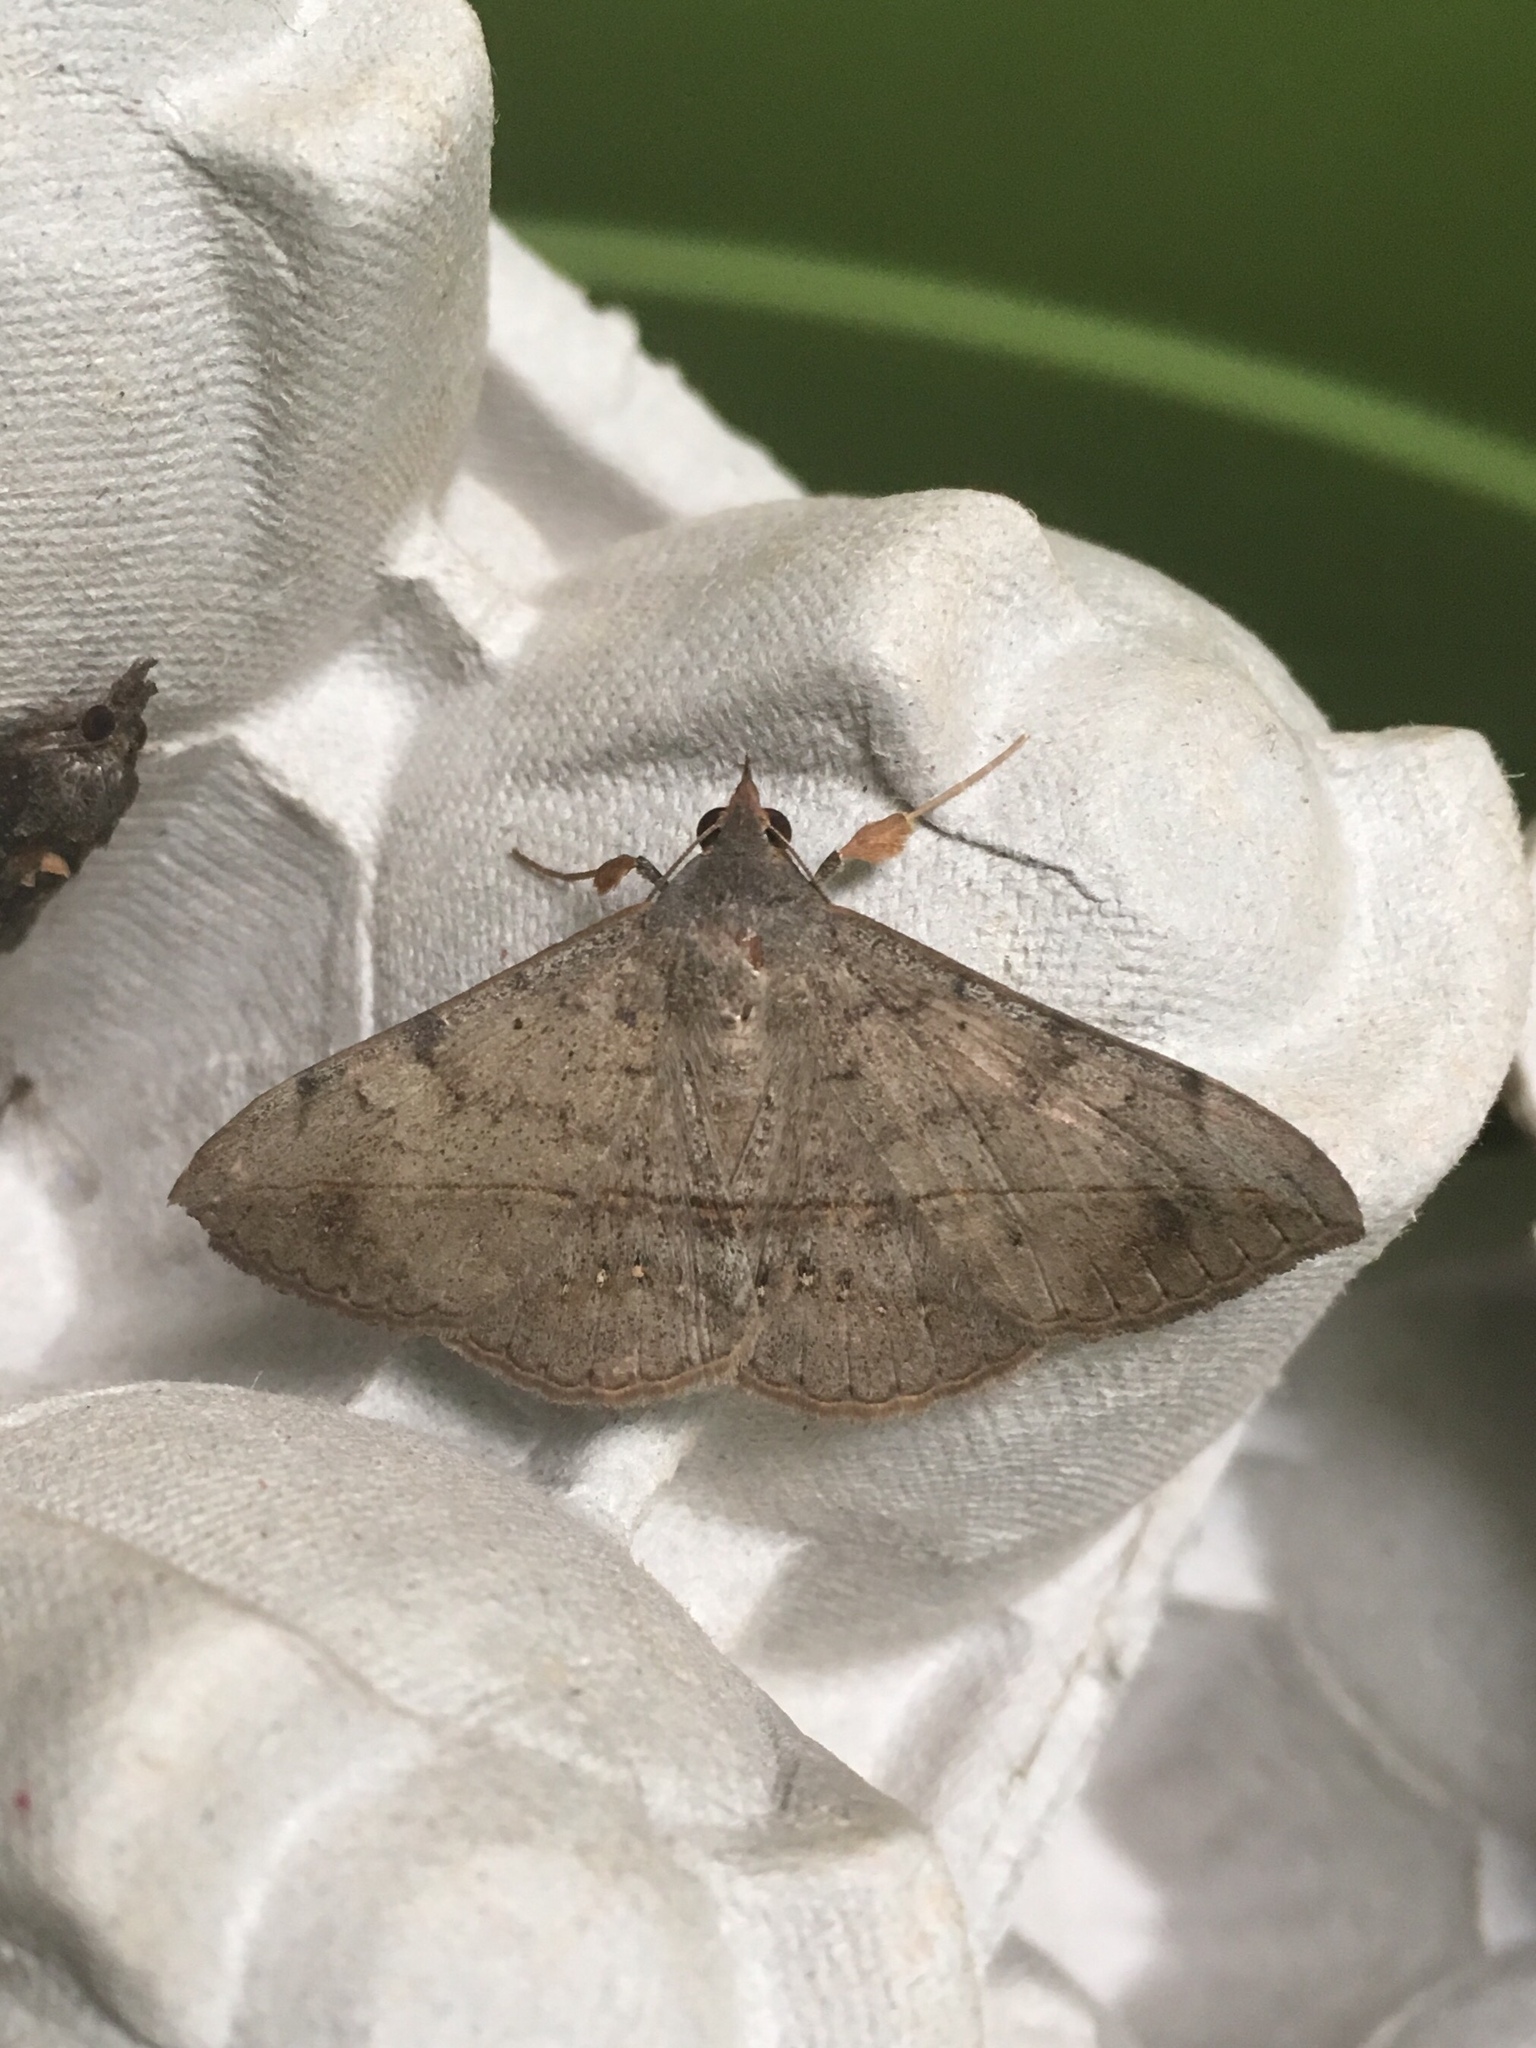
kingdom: Animalia
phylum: Arthropoda
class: Insecta
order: Lepidoptera
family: Erebidae
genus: Anticarsia
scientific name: Anticarsia gemmatalis
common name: Cutworm moth
